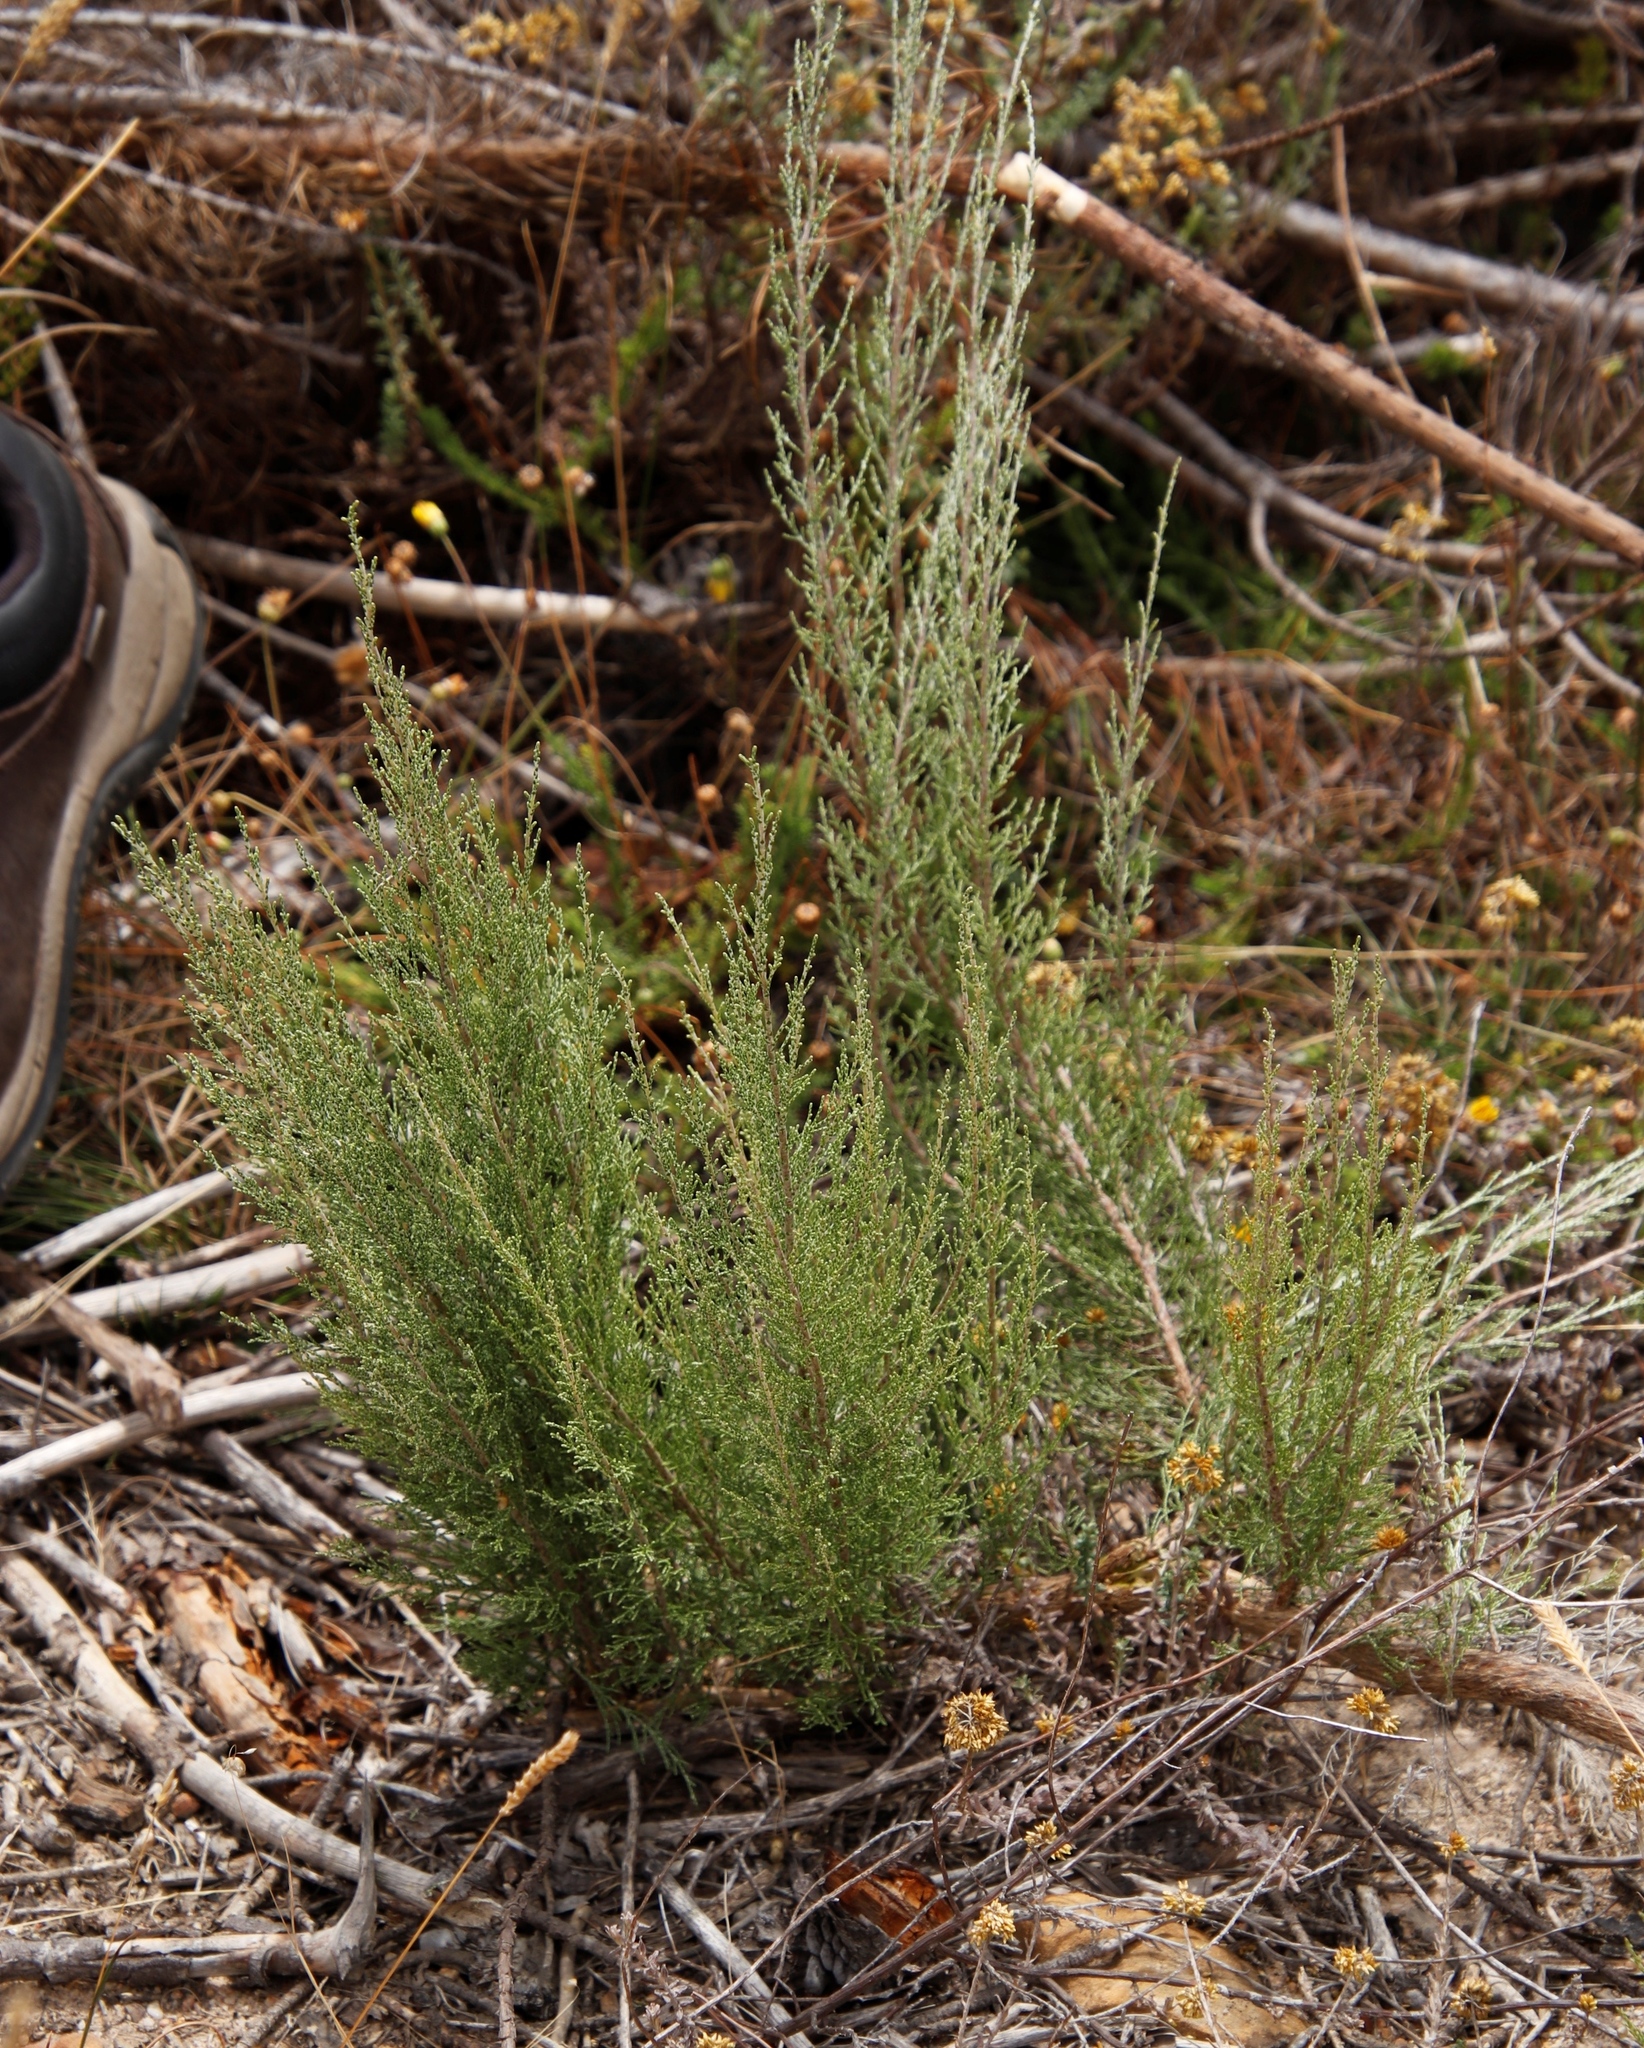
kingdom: Plantae
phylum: Tracheophyta
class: Magnoliopsida
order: Asterales
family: Asteraceae
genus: Dicerothamnus
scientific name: Dicerothamnus rhinocerotis
